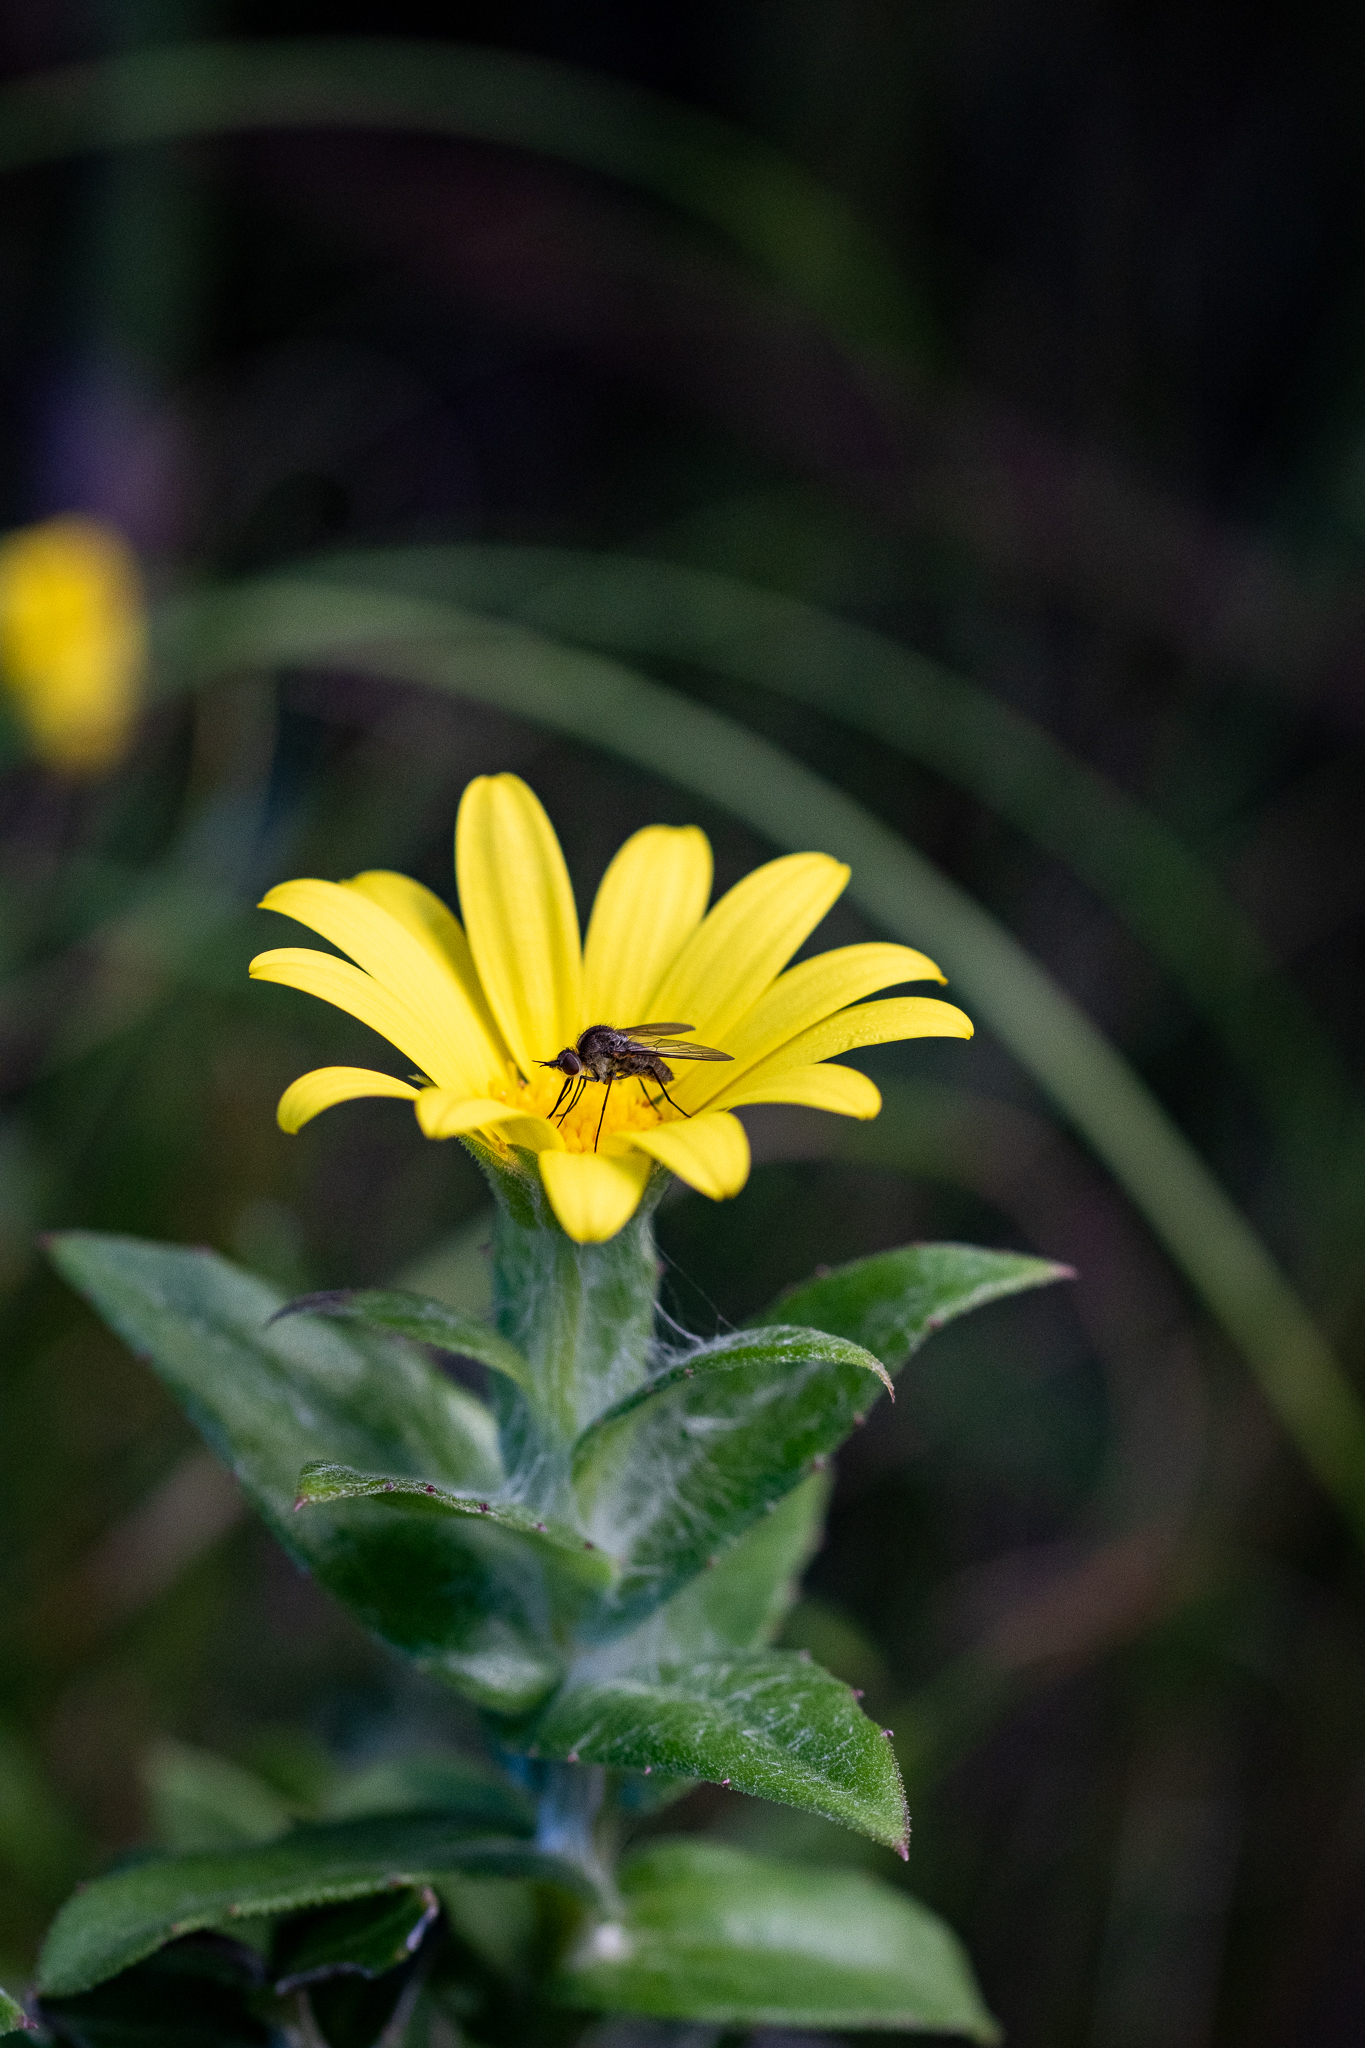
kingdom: Plantae
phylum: Tracheophyta
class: Magnoliopsida
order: Asterales
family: Asteraceae
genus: Osteospermum
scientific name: Osteospermum ilicifolium
